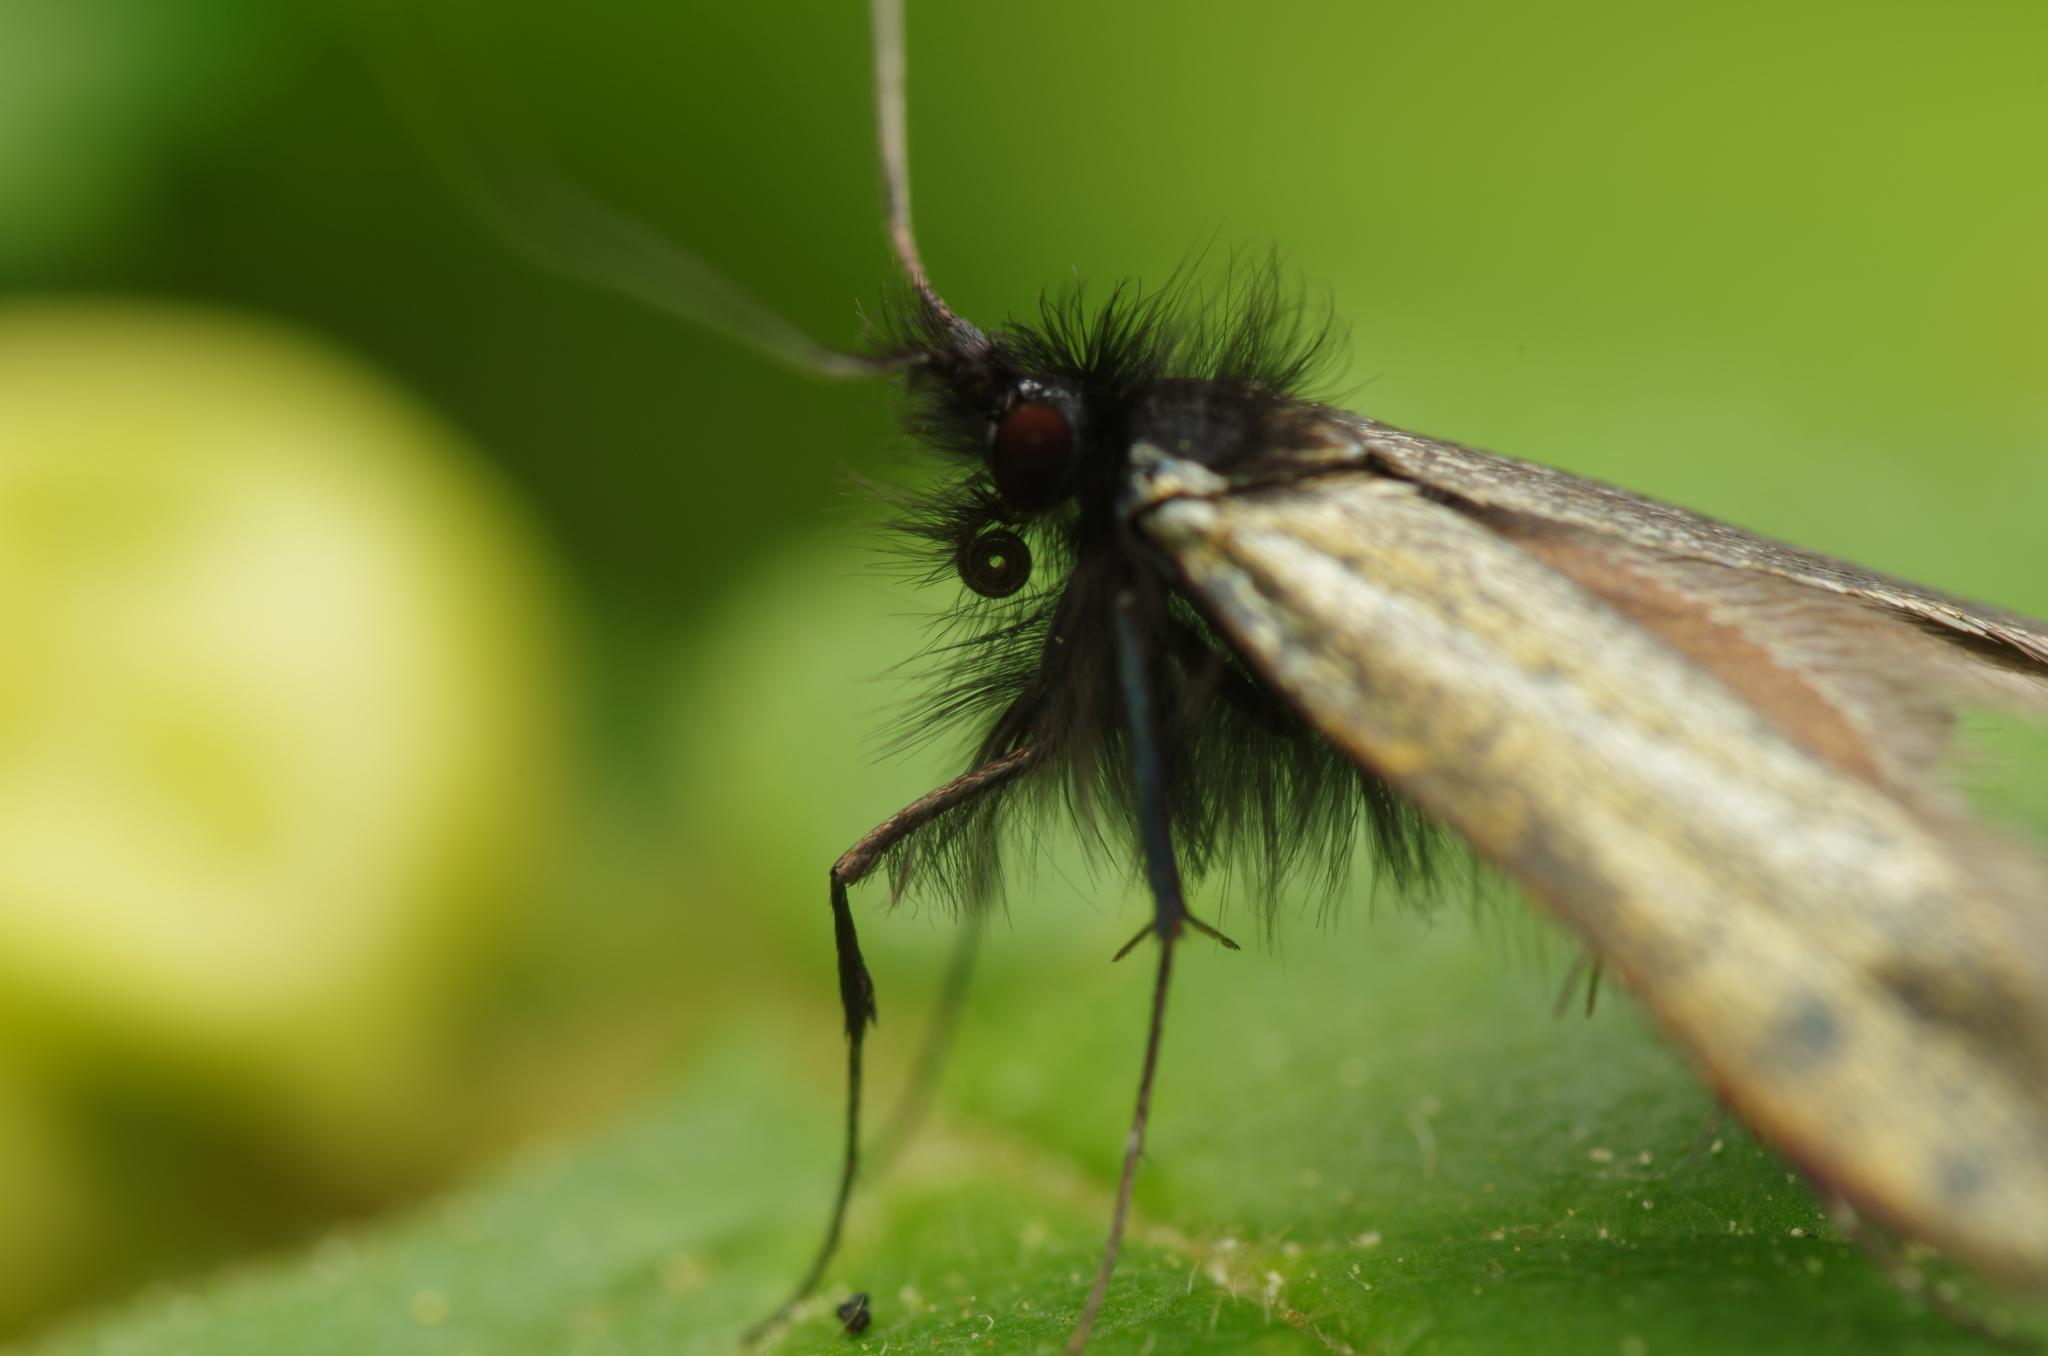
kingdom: Animalia
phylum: Arthropoda
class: Insecta
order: Lepidoptera
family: Adelidae
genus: Adela
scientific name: Adela viridella
